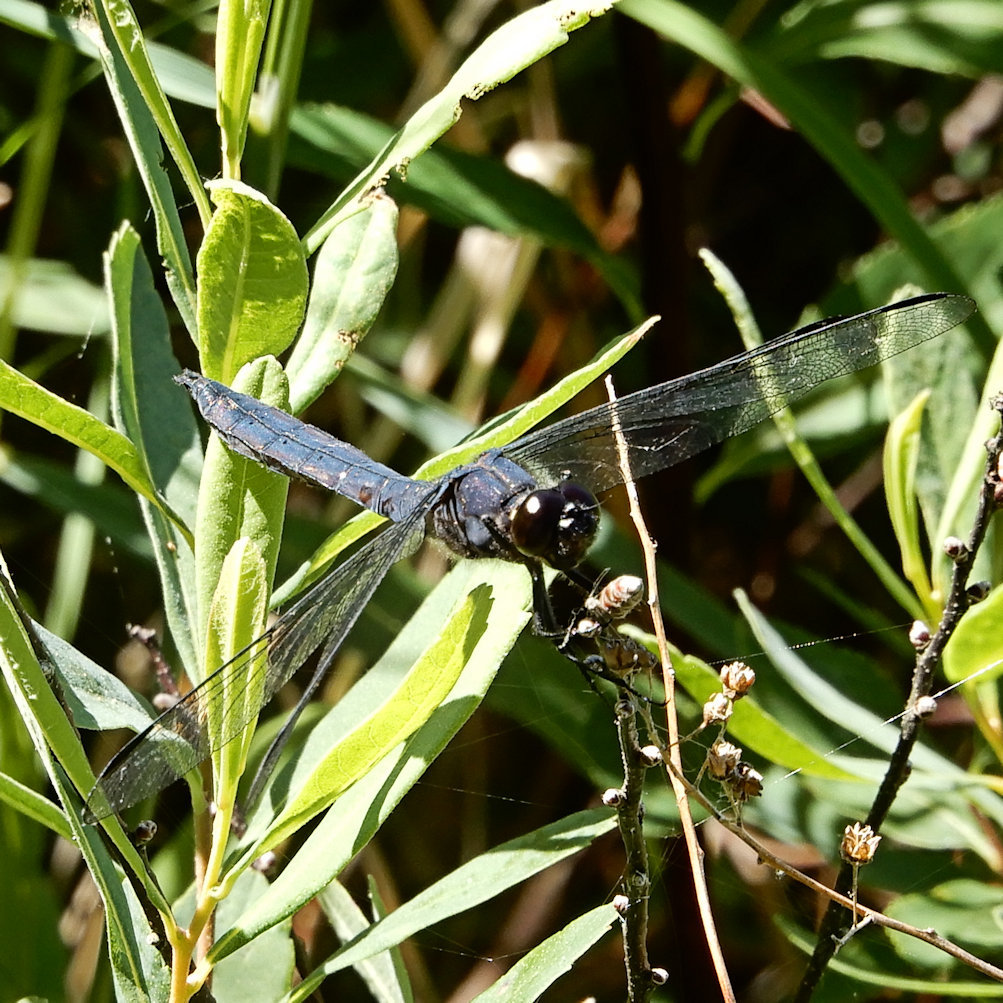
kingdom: Animalia
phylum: Arthropoda
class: Insecta
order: Odonata
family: Libellulidae
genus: Libellula
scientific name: Libellula incesta
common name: Slaty skimmer
